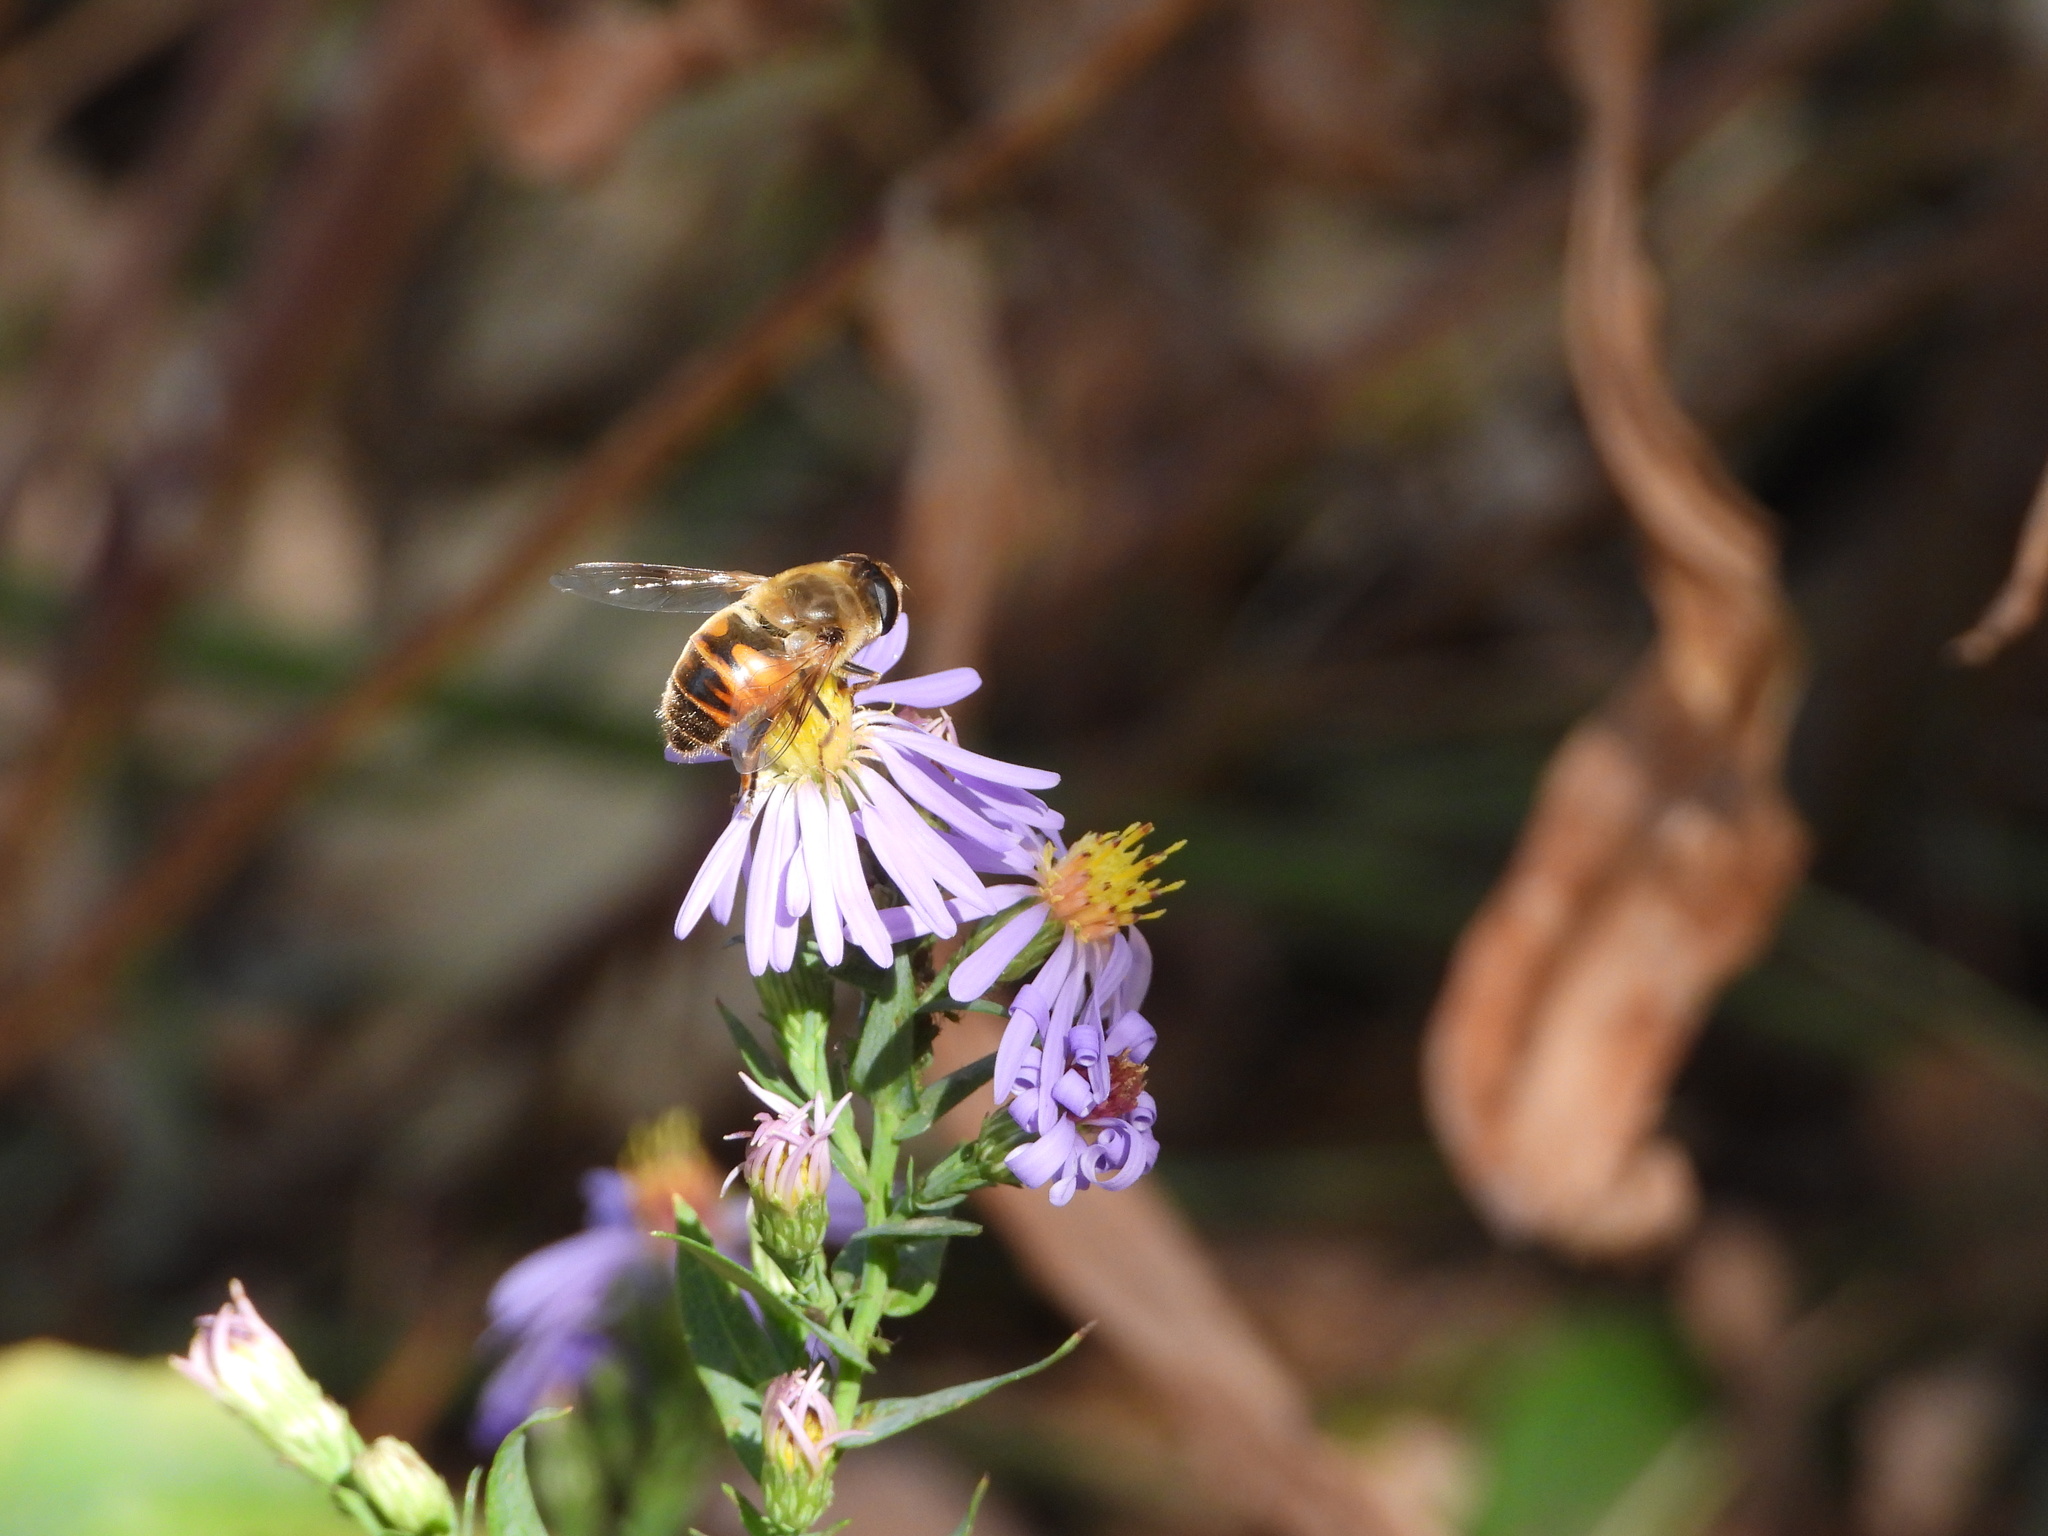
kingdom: Animalia
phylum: Arthropoda
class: Insecta
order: Diptera
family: Syrphidae
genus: Eristalis
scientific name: Eristalis tenax
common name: Drone fly
